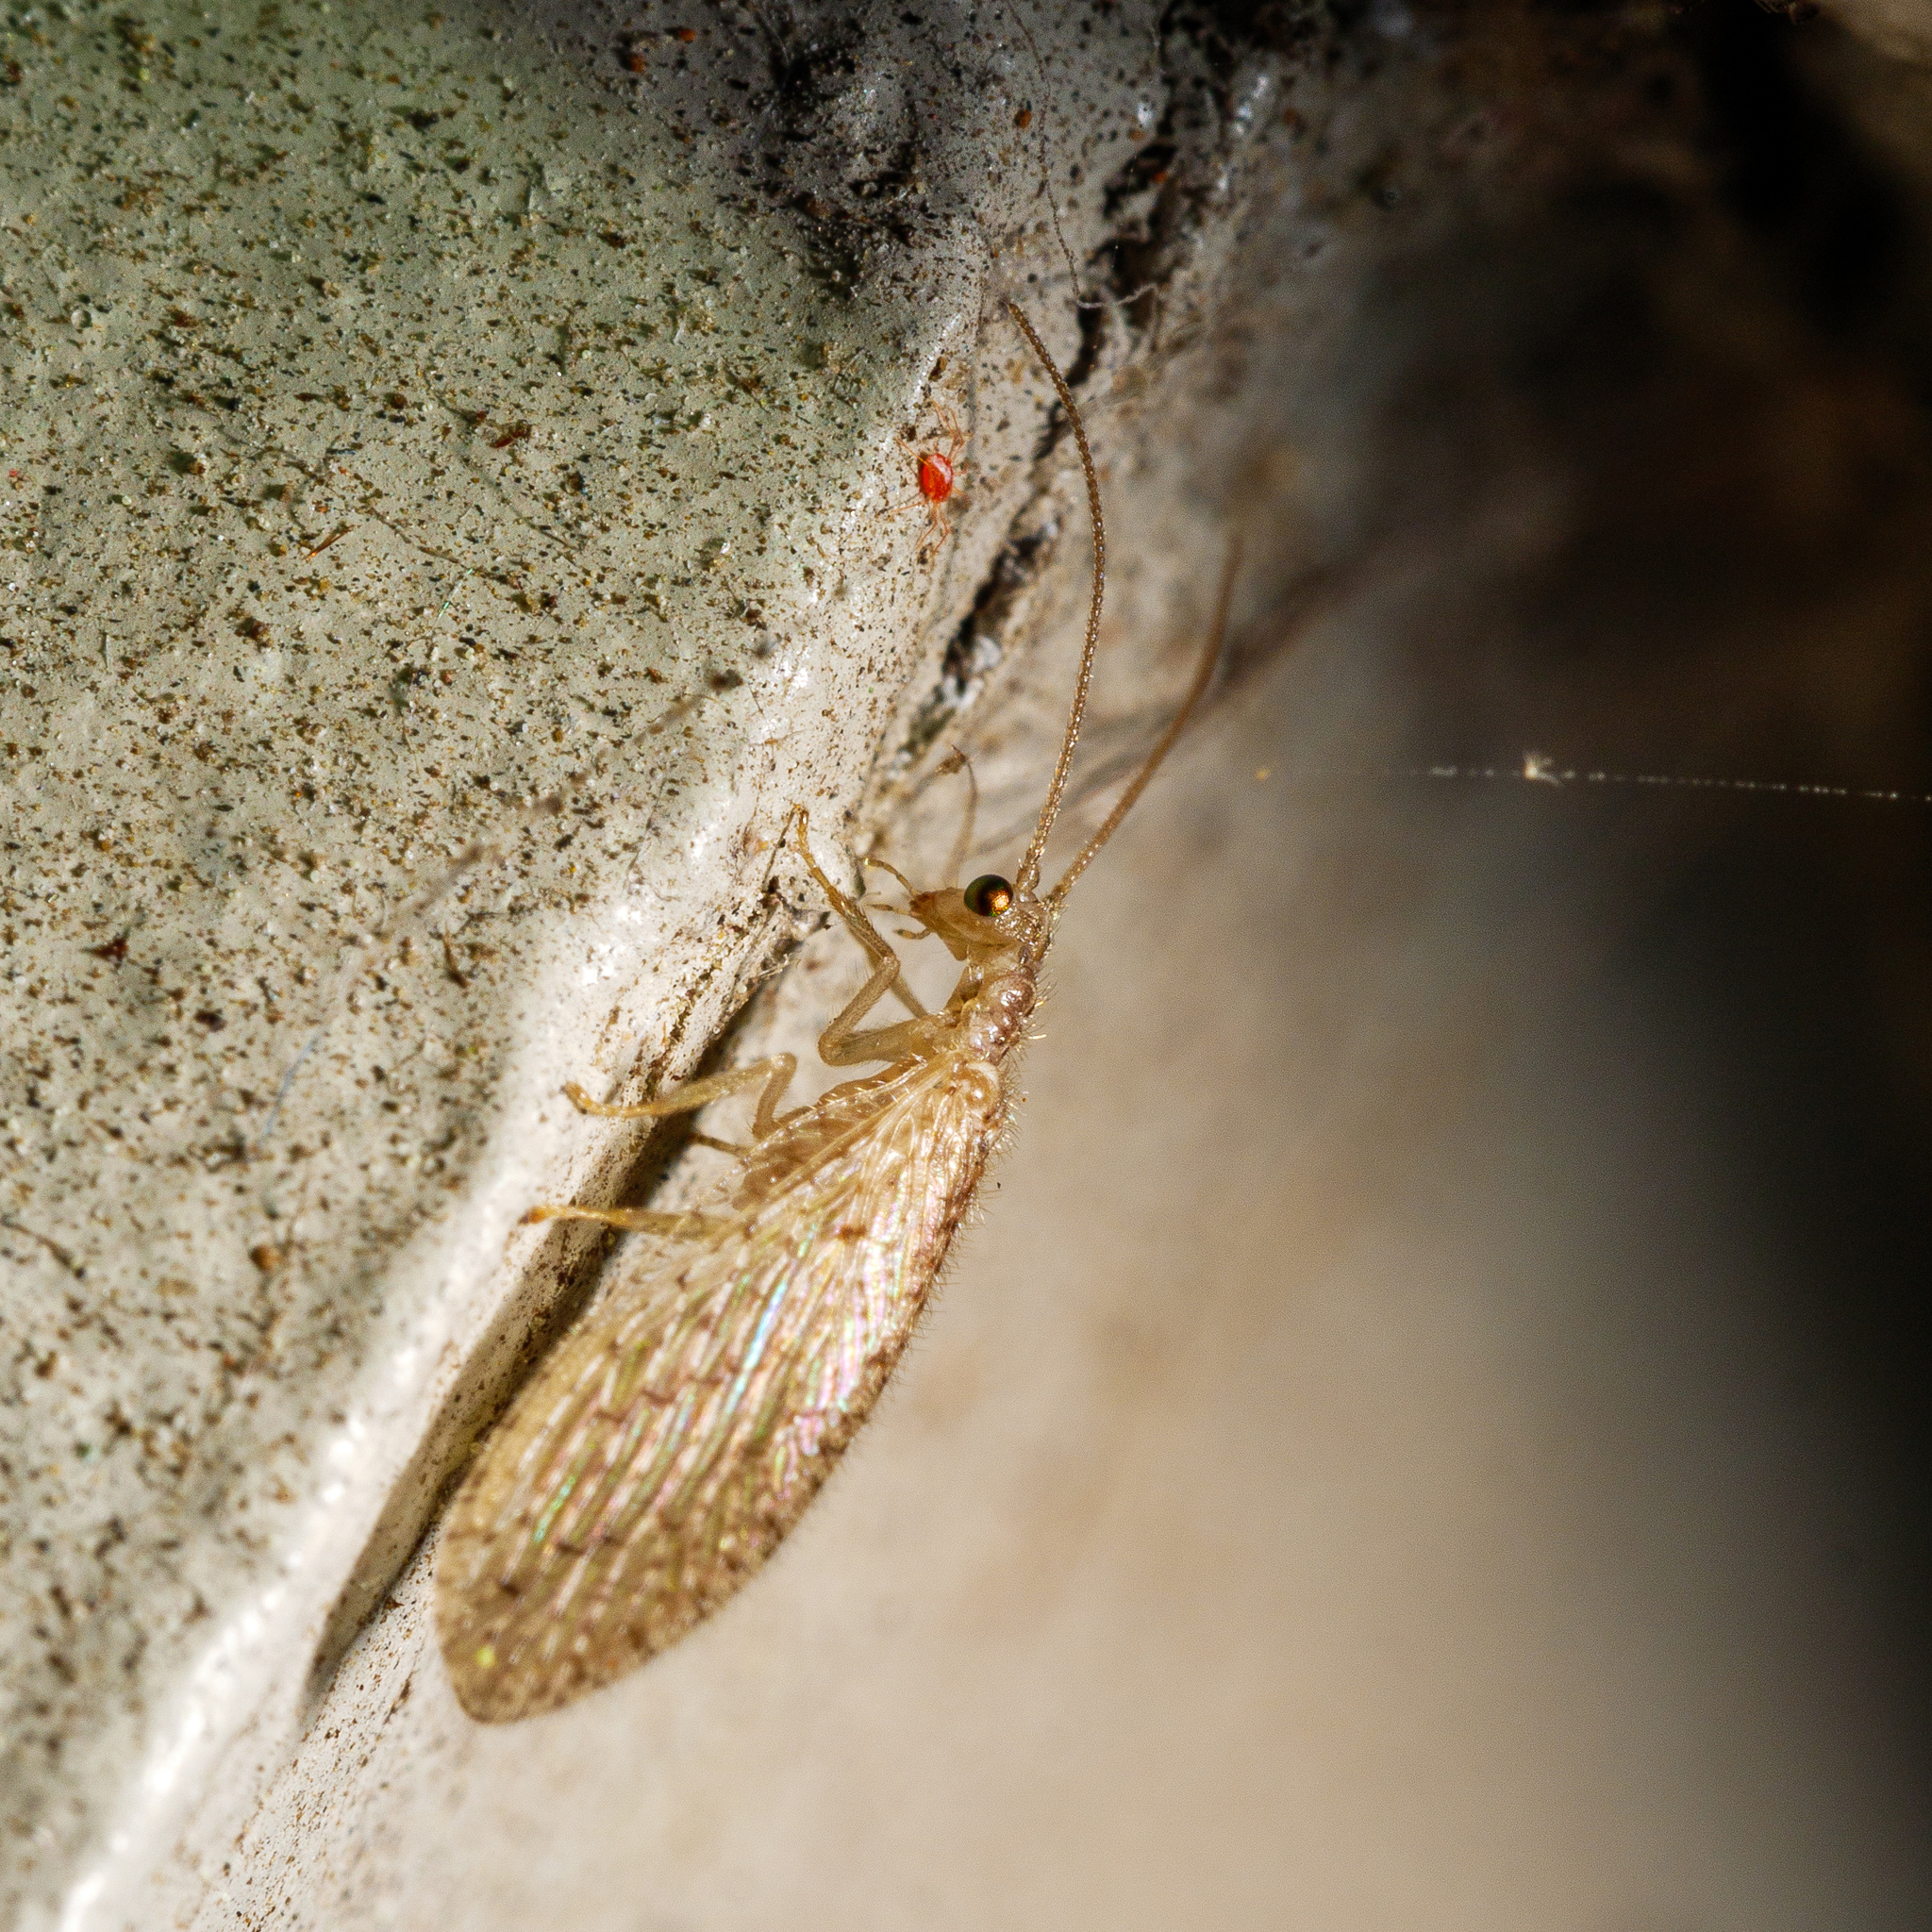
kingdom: Animalia
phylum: Arthropoda
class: Insecta
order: Neuroptera
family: Hemerobiidae
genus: Micromus
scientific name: Micromus tasmaniae
